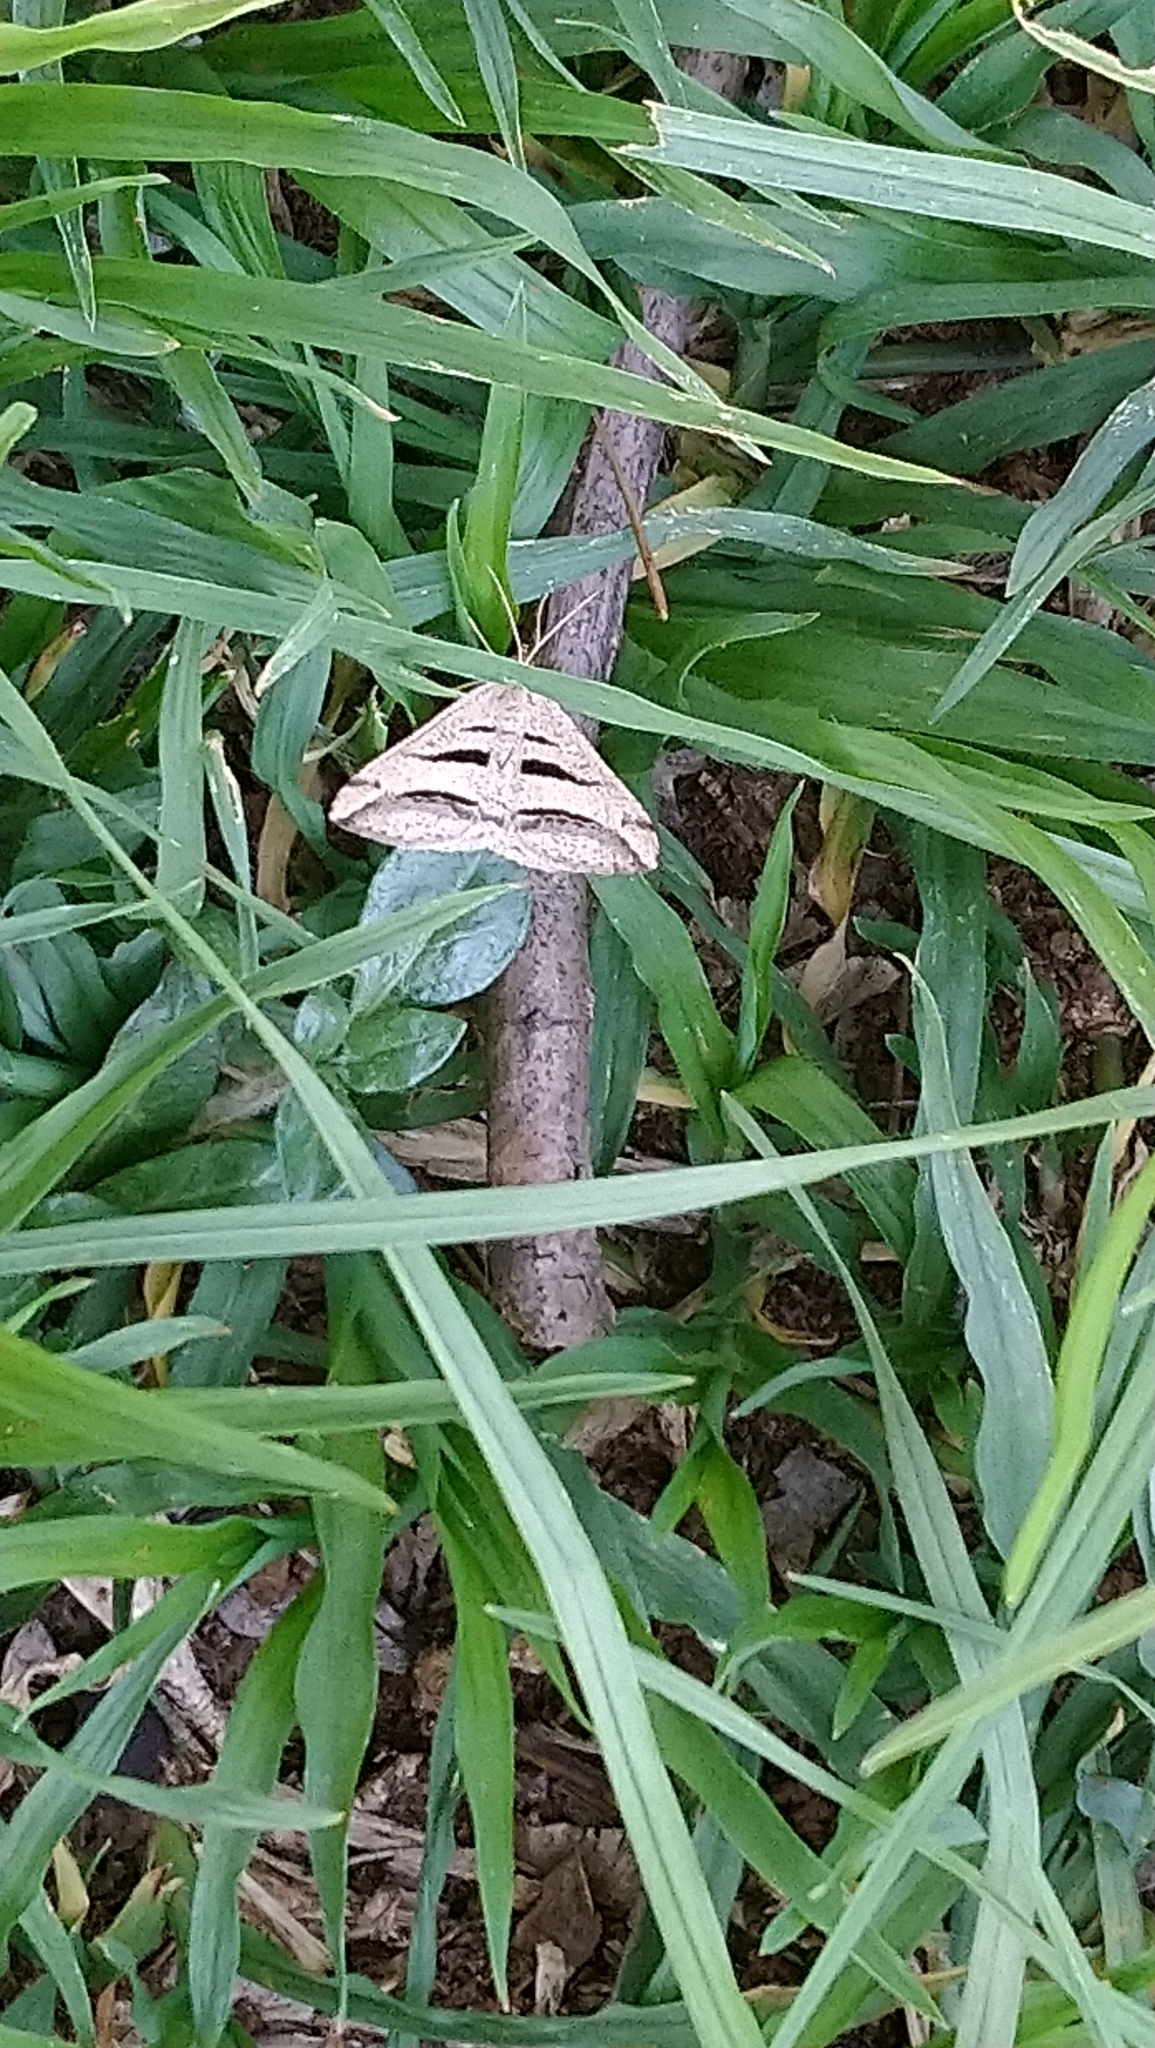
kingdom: Animalia
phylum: Arthropoda
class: Insecta
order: Lepidoptera
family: Geometridae
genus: Chiasmia
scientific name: Chiasmia subcurvaria
